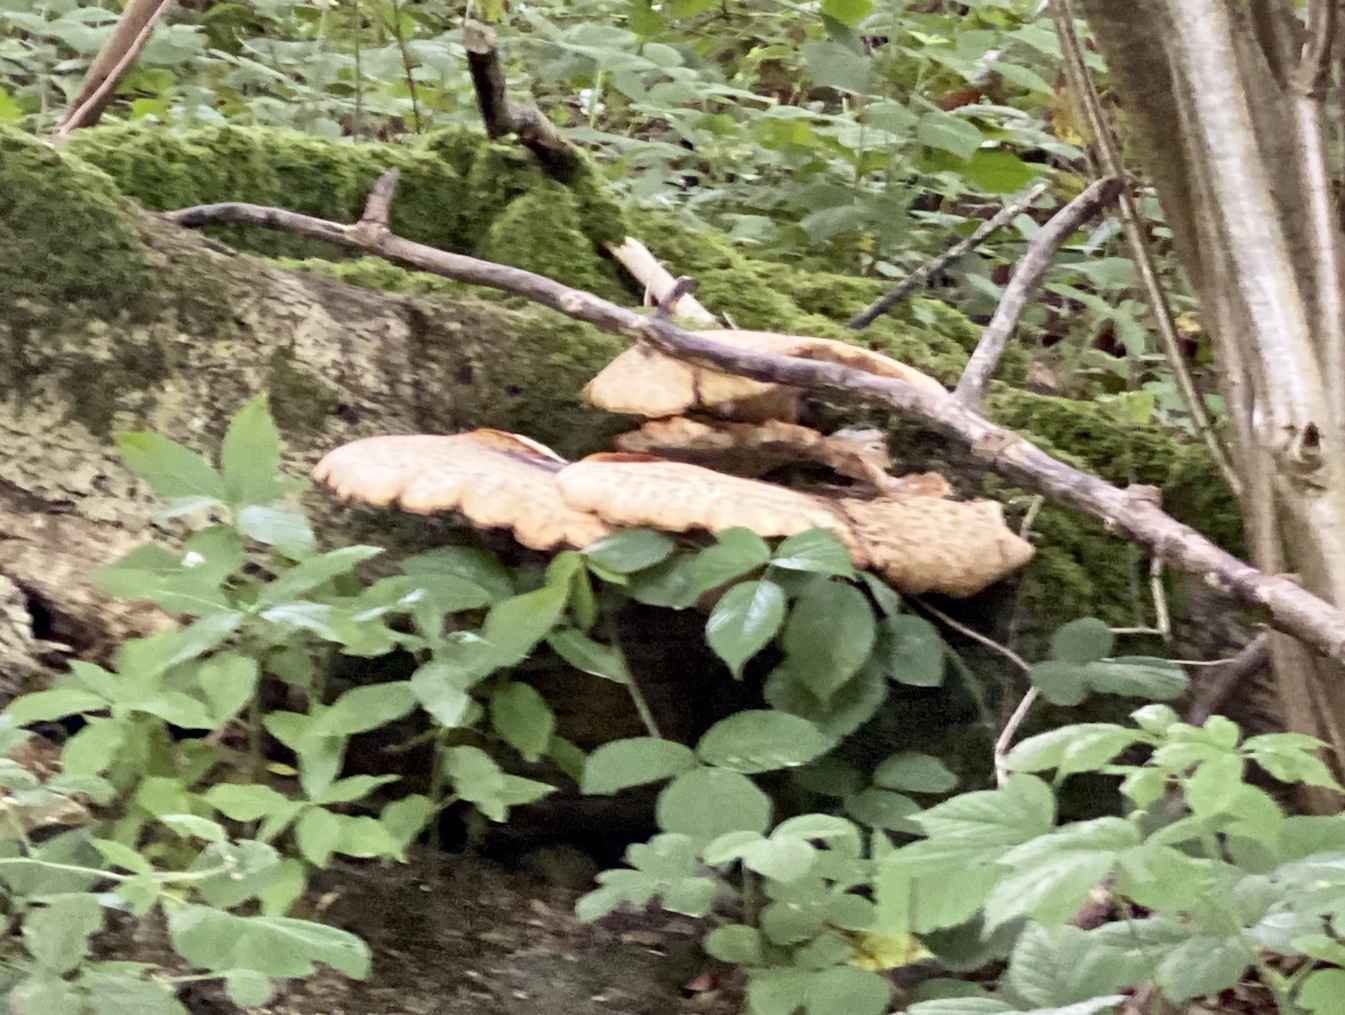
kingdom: Fungi
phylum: Basidiomycota
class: Agaricomycetes
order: Polyporales
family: Polyporaceae
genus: Cerioporus
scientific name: Cerioporus squamosus
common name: Dryad's saddle
